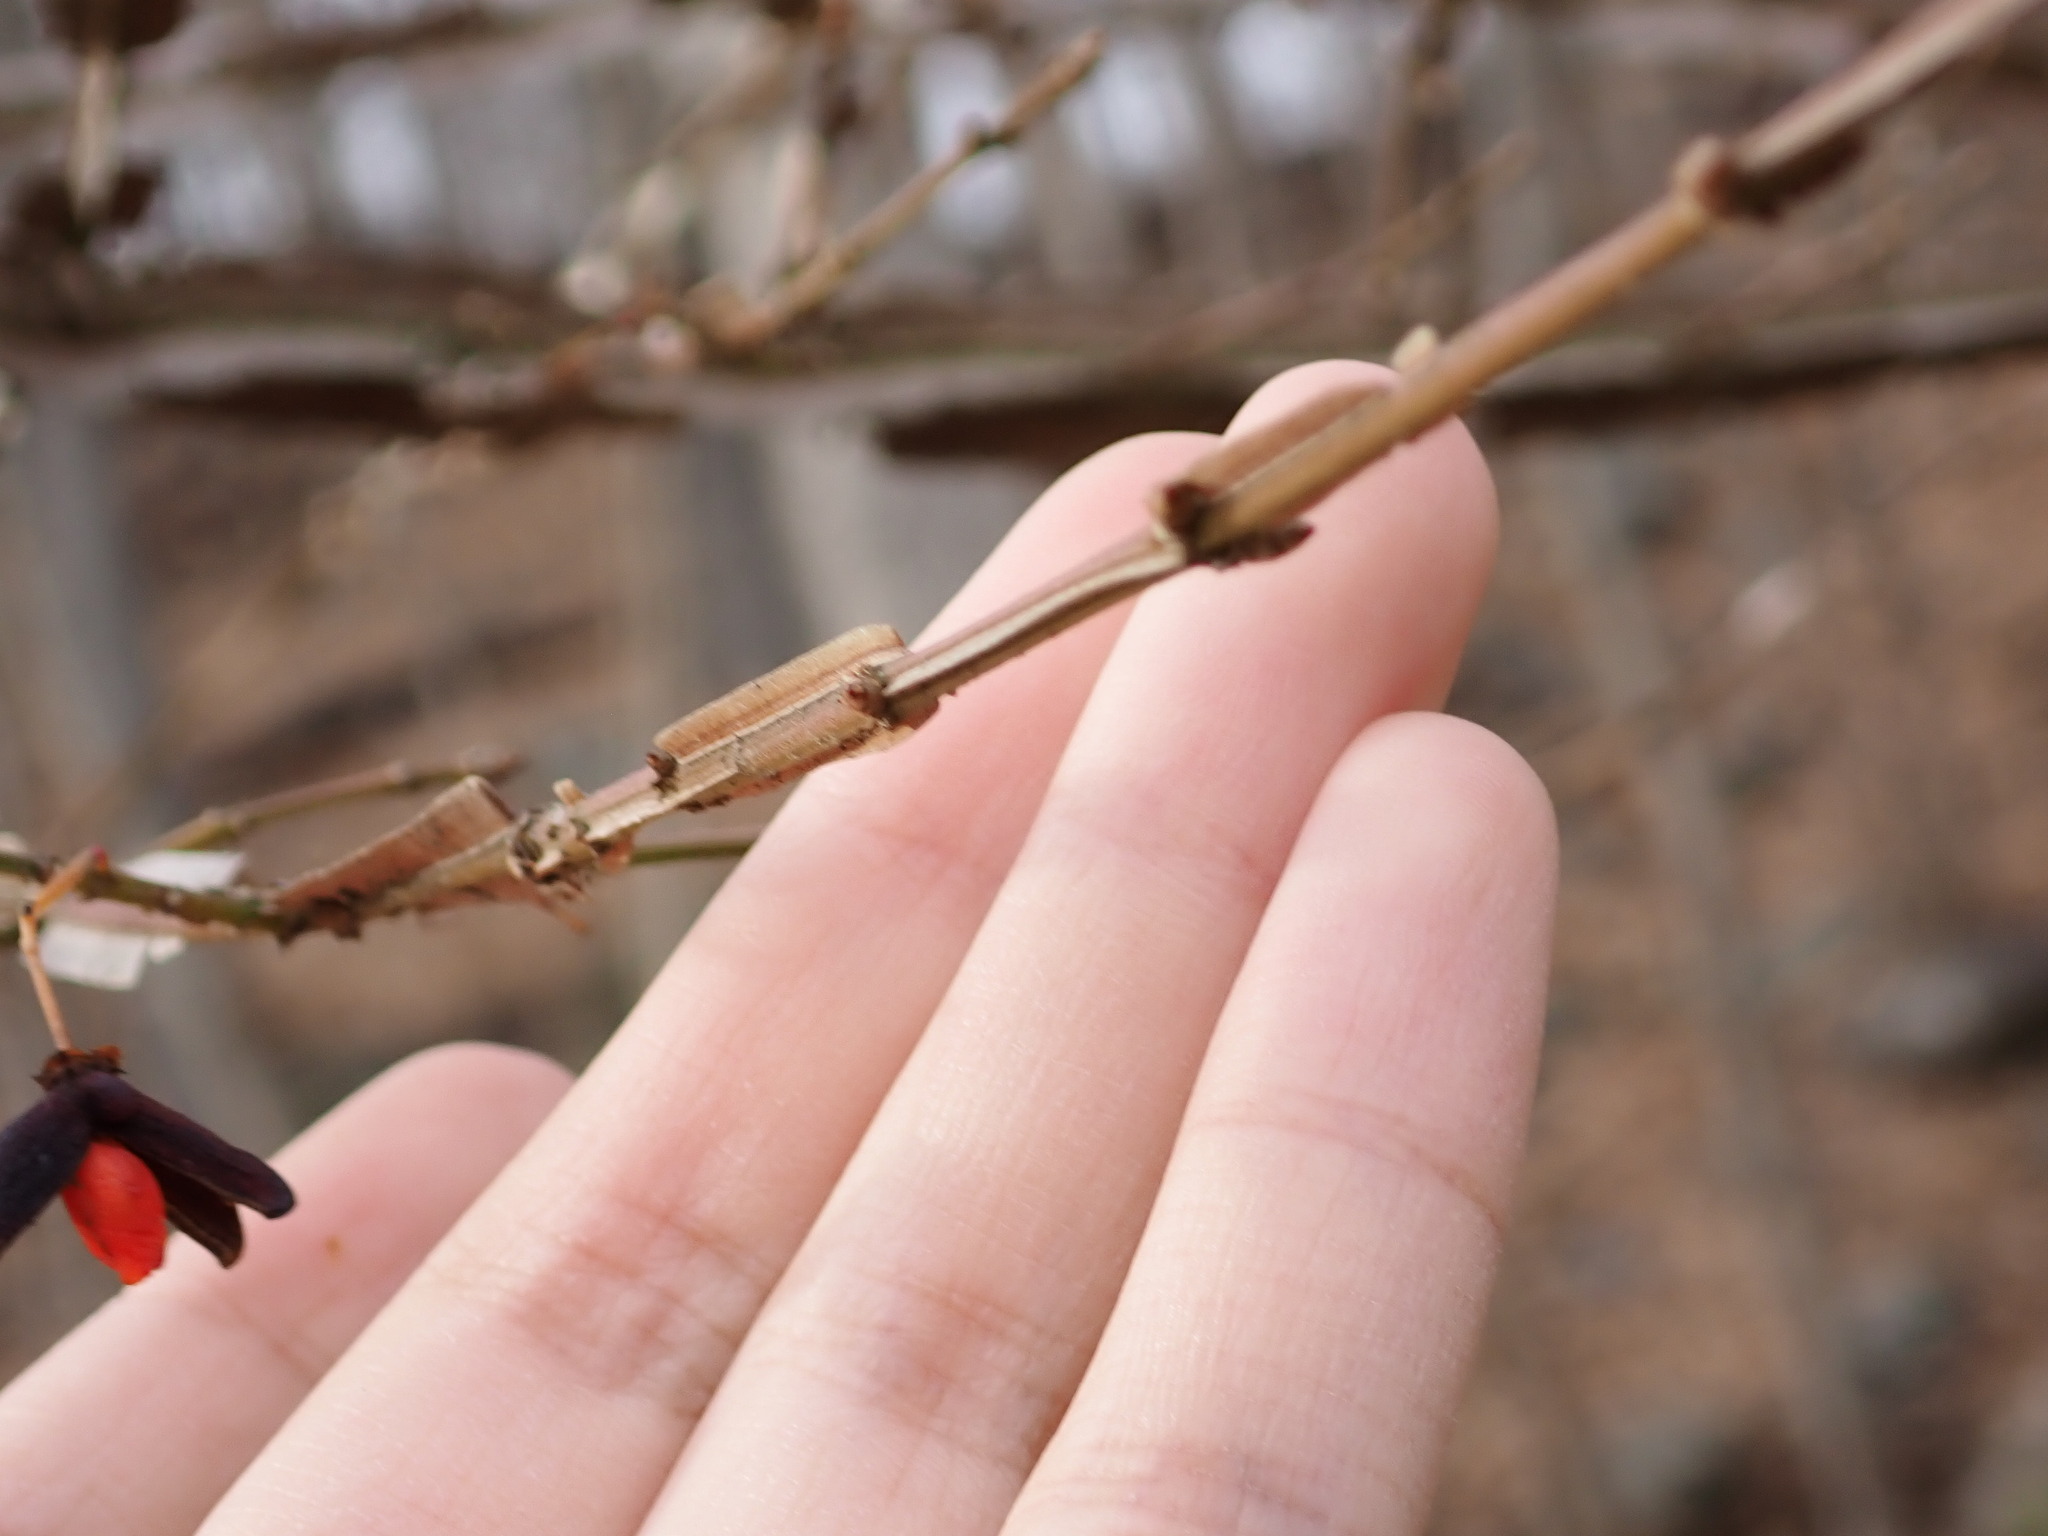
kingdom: Plantae
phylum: Tracheophyta
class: Magnoliopsida
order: Celastrales
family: Celastraceae
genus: Euonymus
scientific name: Euonymus alatus
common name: Winged euonymus
